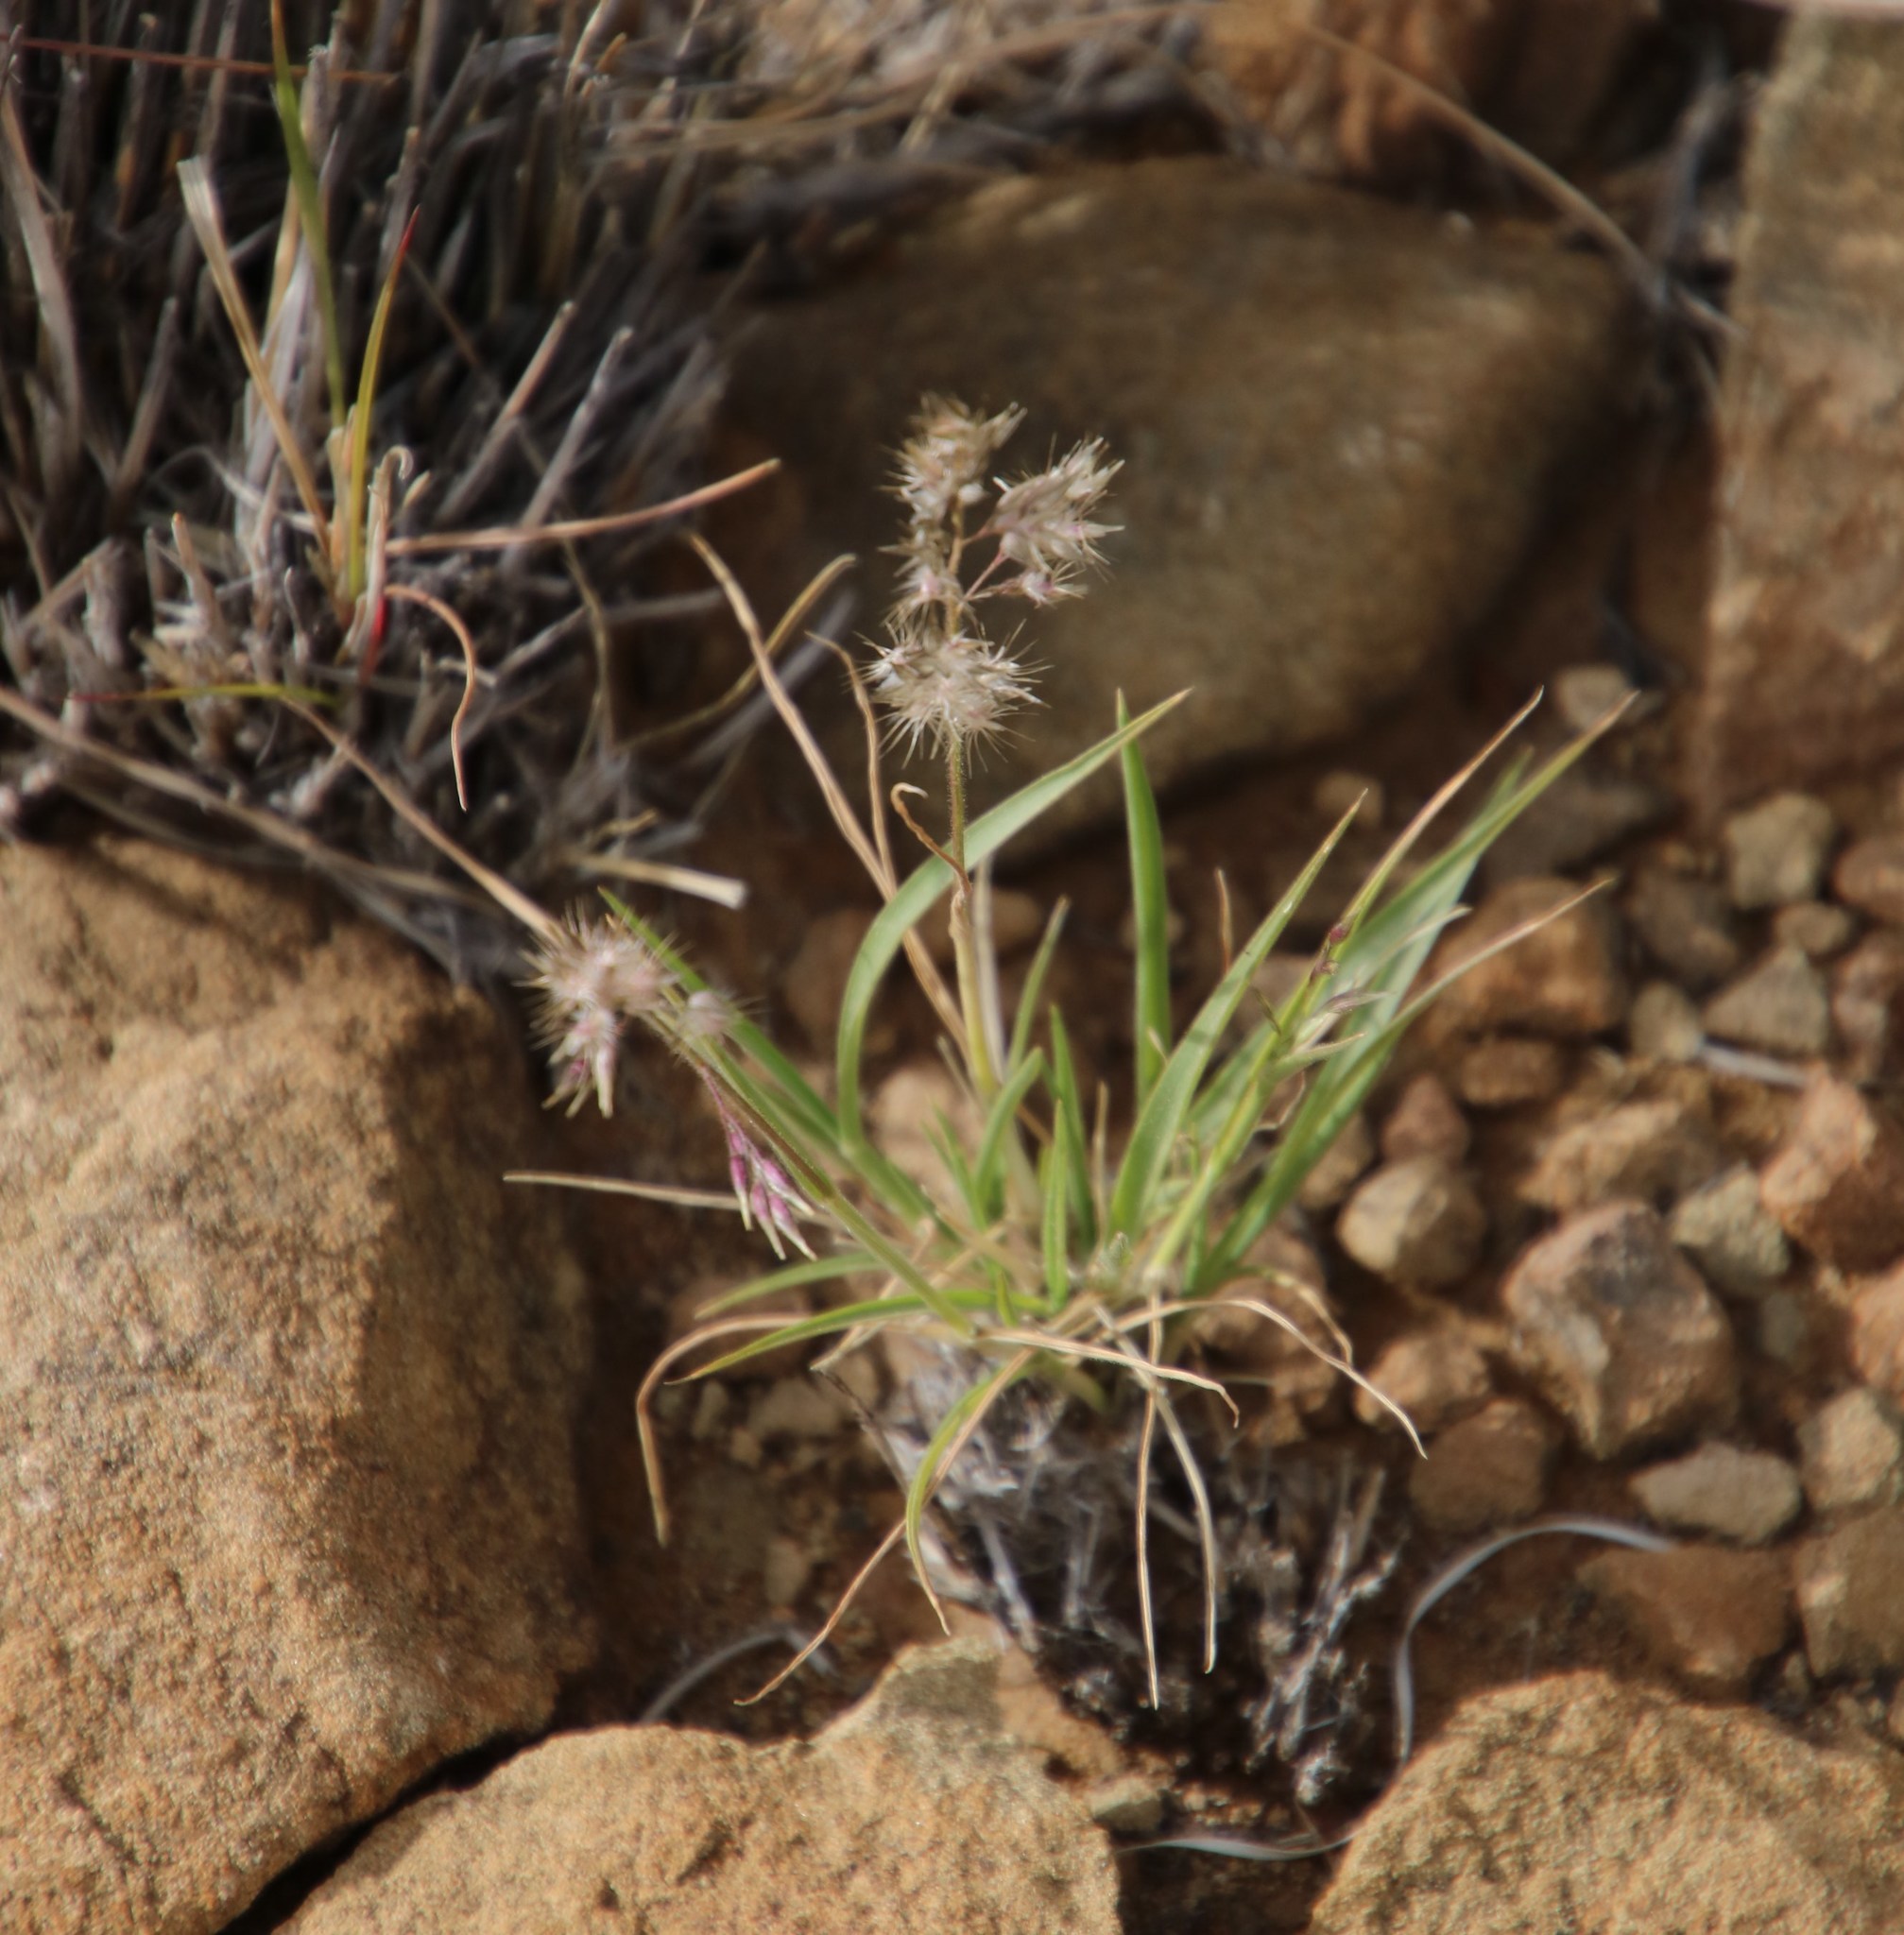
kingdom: Plantae
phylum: Tracheophyta
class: Liliopsida
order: Poales
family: Poaceae
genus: Enneapogon
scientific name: Enneapogon scaber
